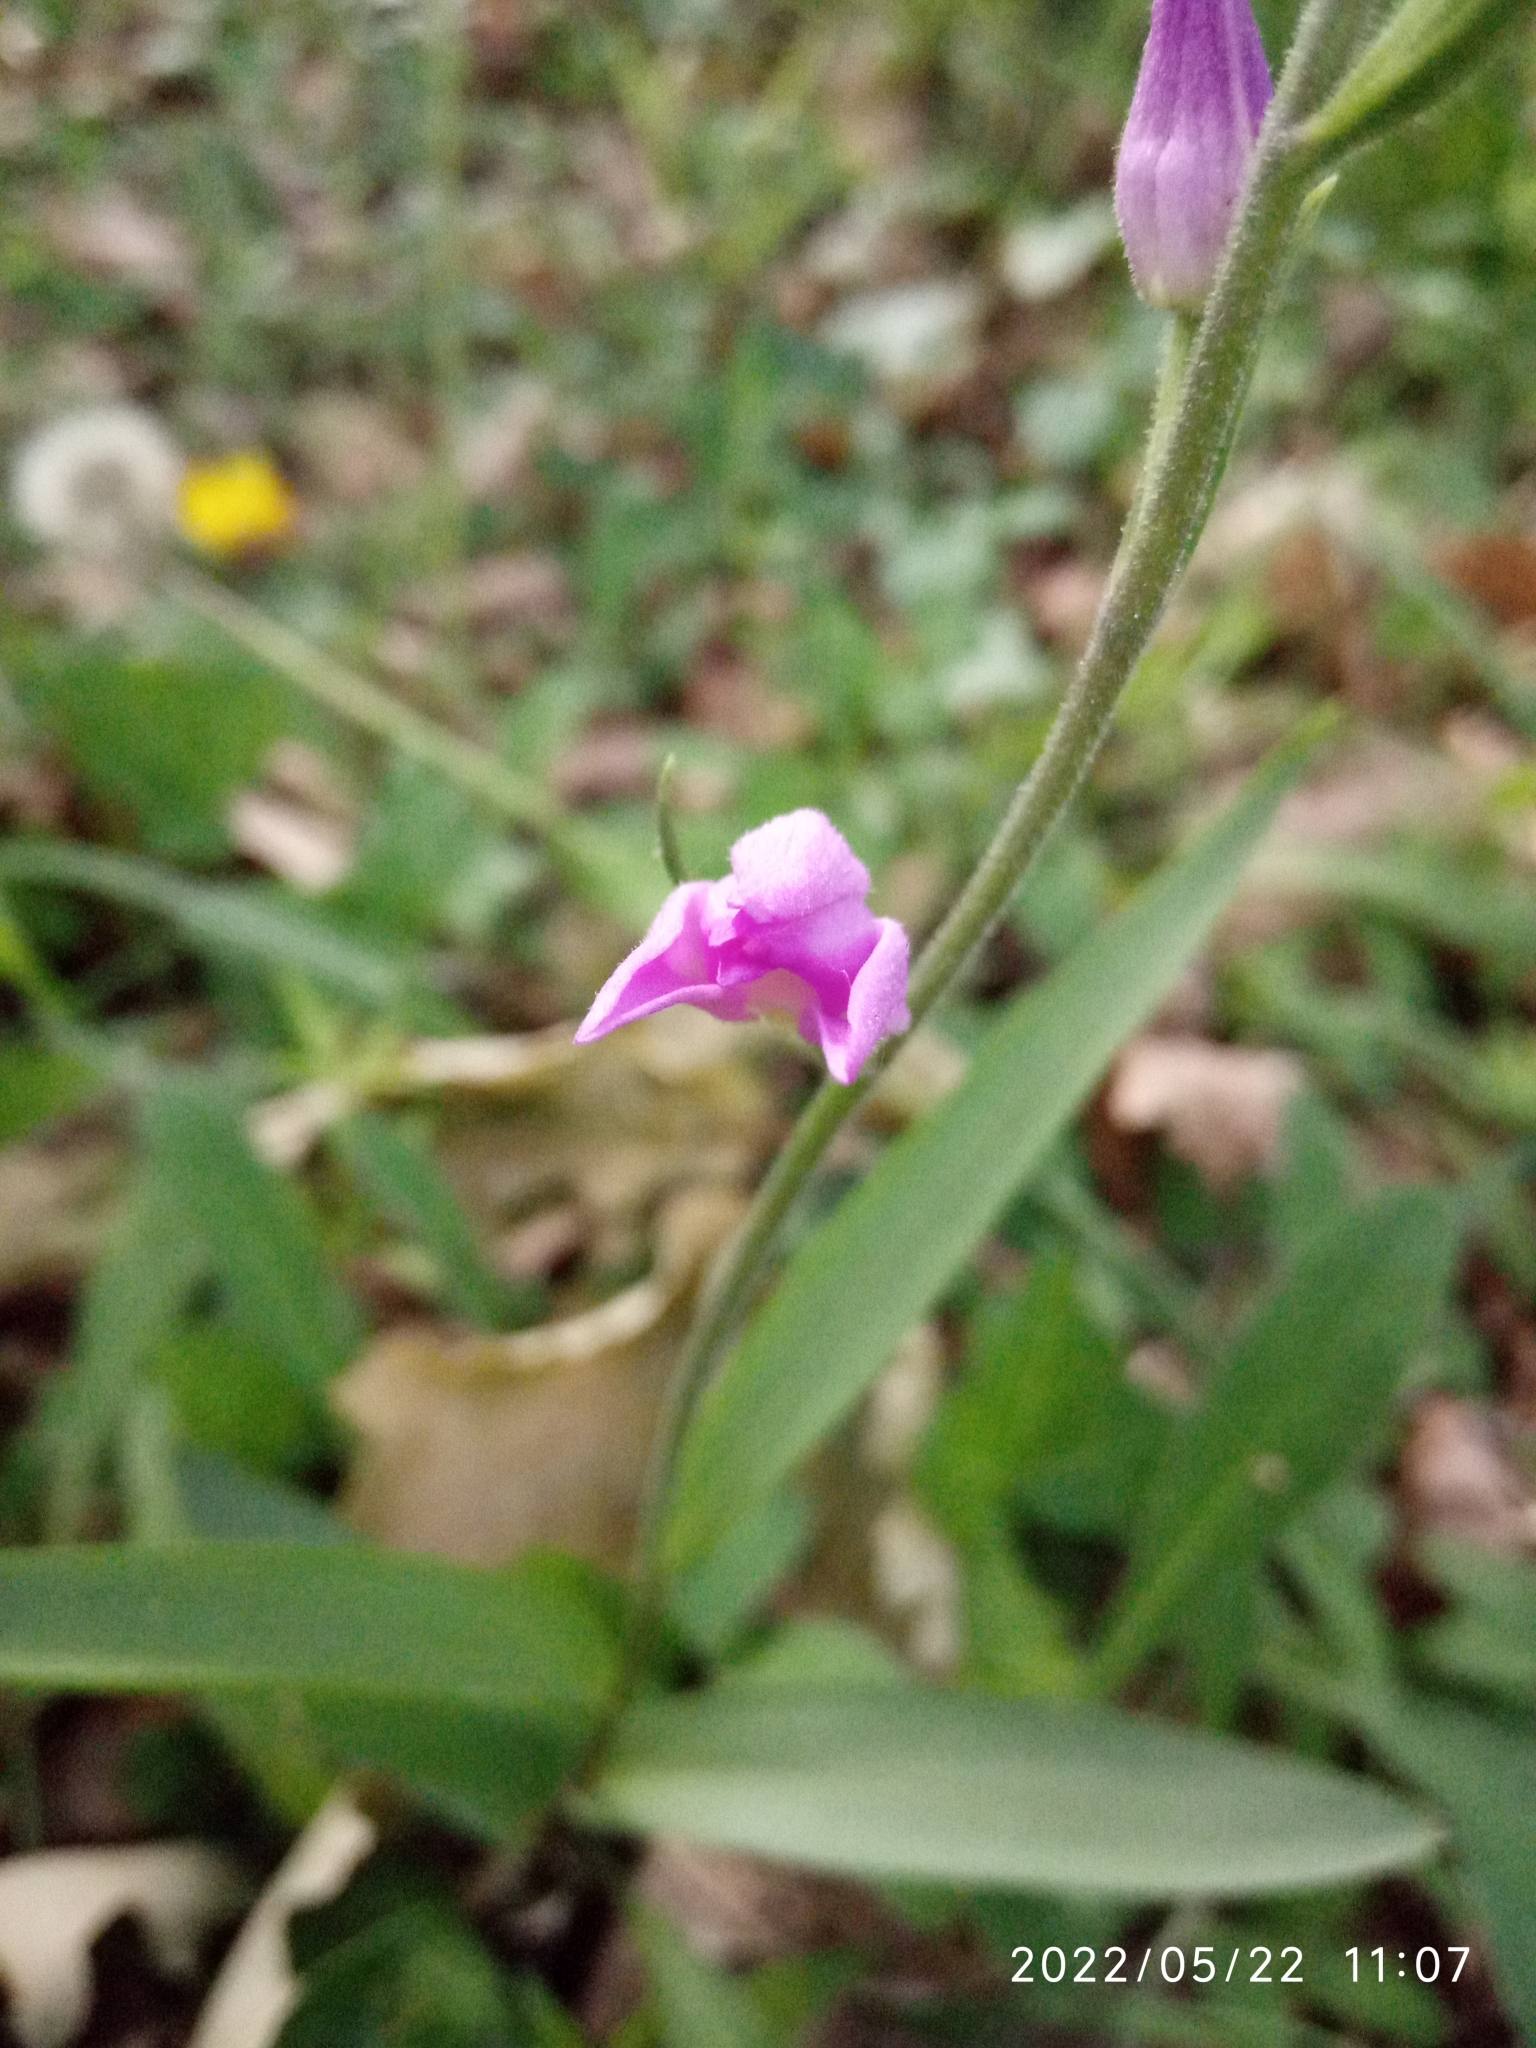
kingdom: Plantae
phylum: Tracheophyta
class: Liliopsida
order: Asparagales
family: Orchidaceae
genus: Cephalanthera
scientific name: Cephalanthera rubra
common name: Red helleborine
